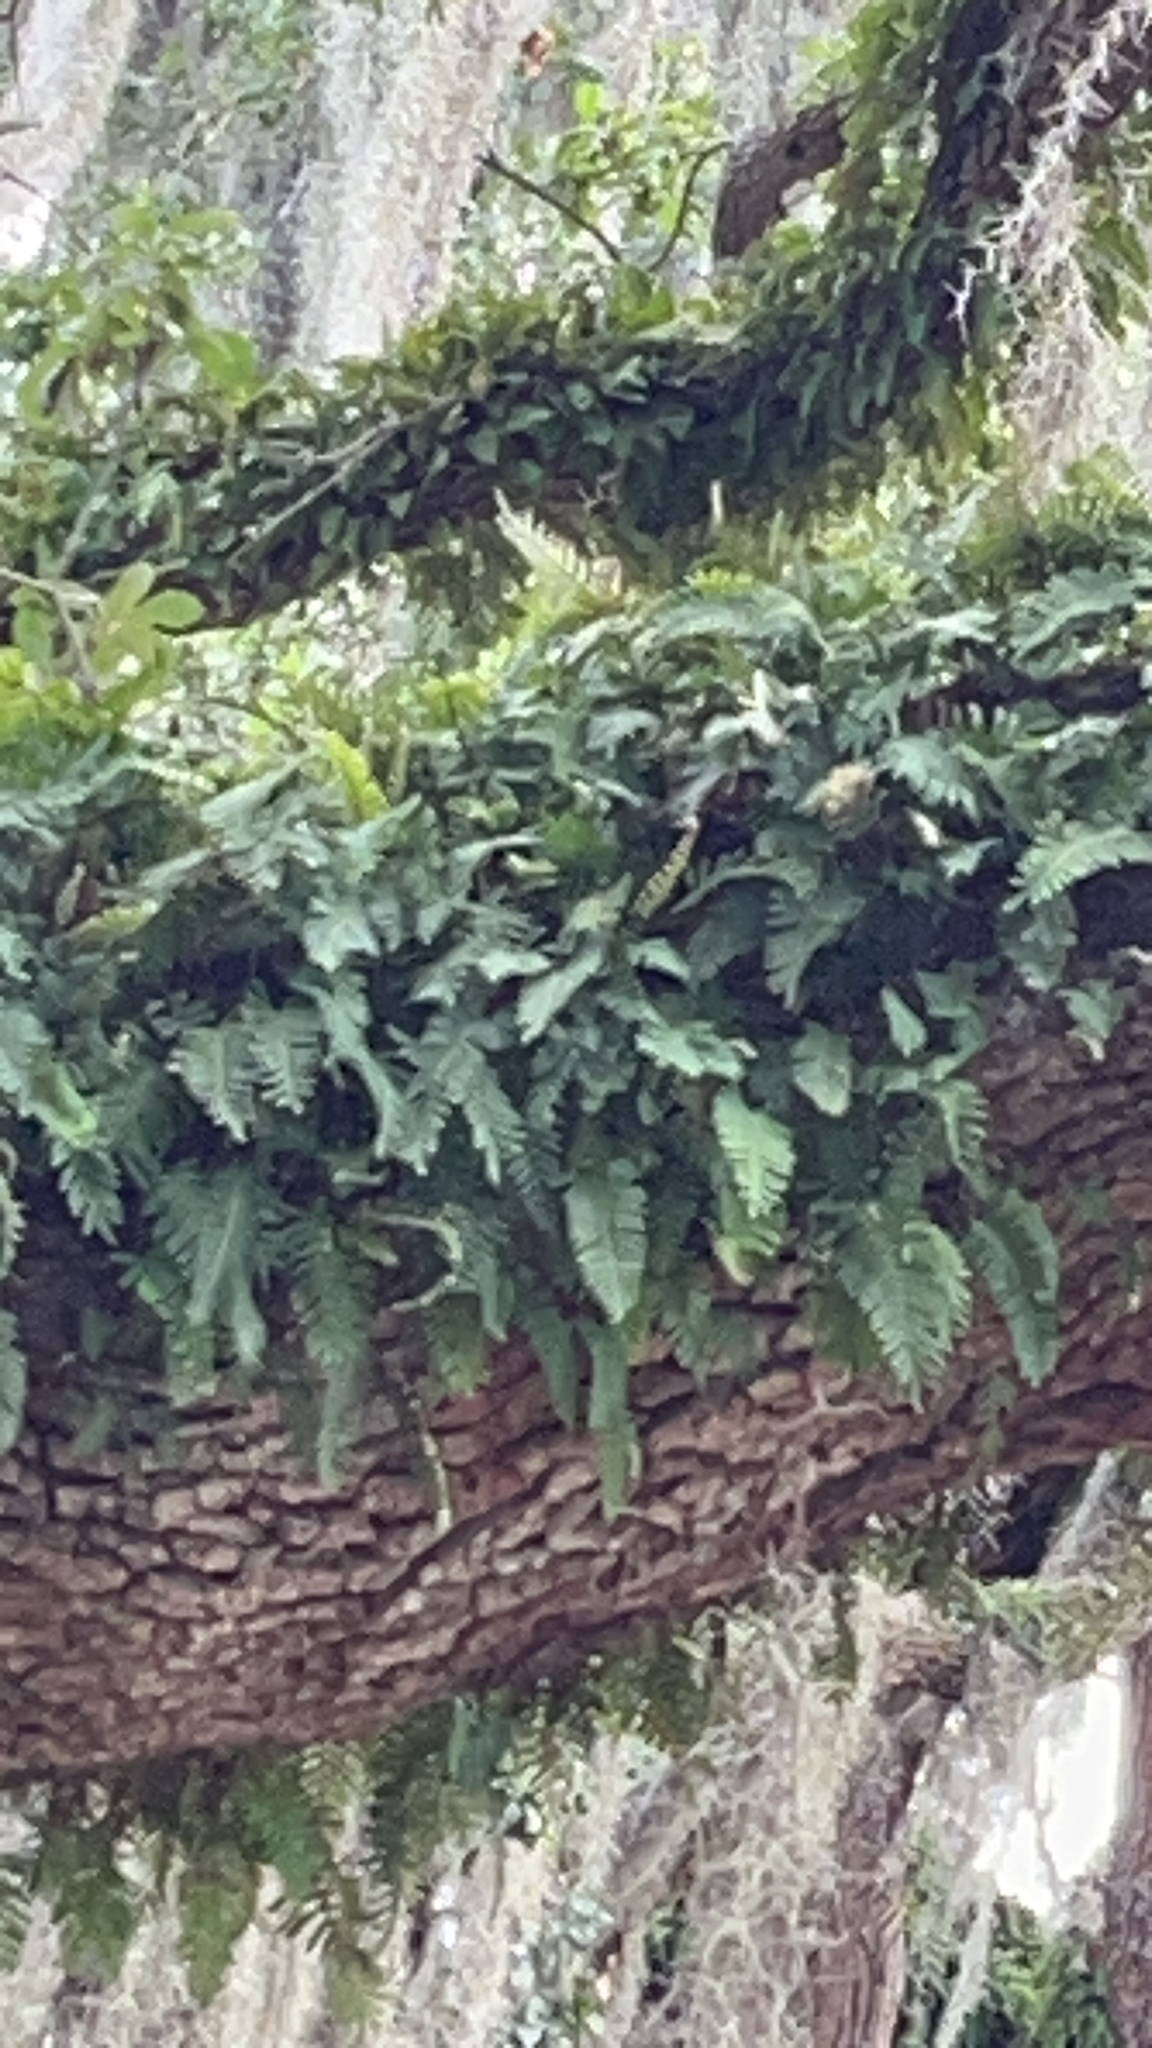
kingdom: Plantae
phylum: Tracheophyta
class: Polypodiopsida
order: Polypodiales
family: Polypodiaceae
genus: Pleopeltis
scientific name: Pleopeltis michauxiana
